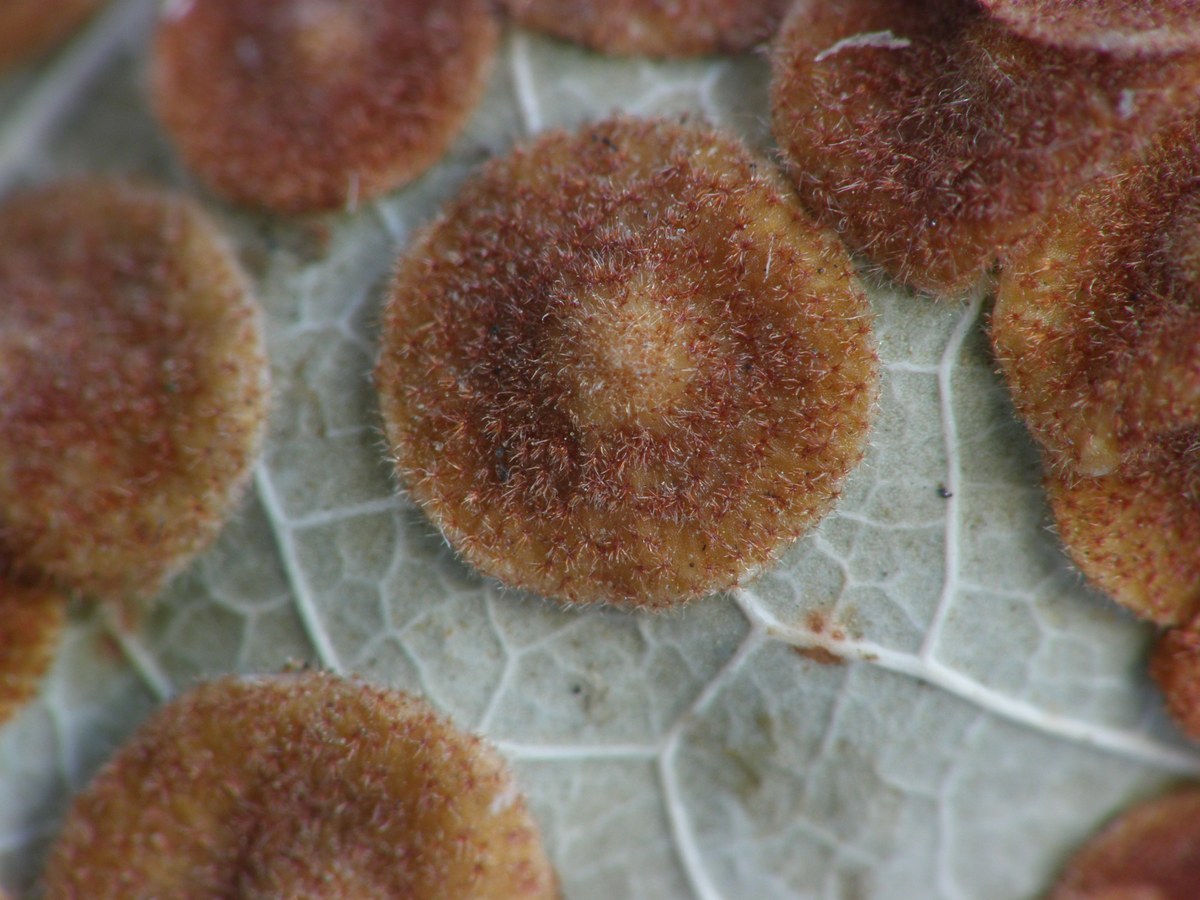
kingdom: Animalia
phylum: Arthropoda
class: Insecta
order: Hymenoptera
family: Cynipidae
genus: Neuroterus
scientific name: Neuroterus quercusbaccarum
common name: Common spangle gall
